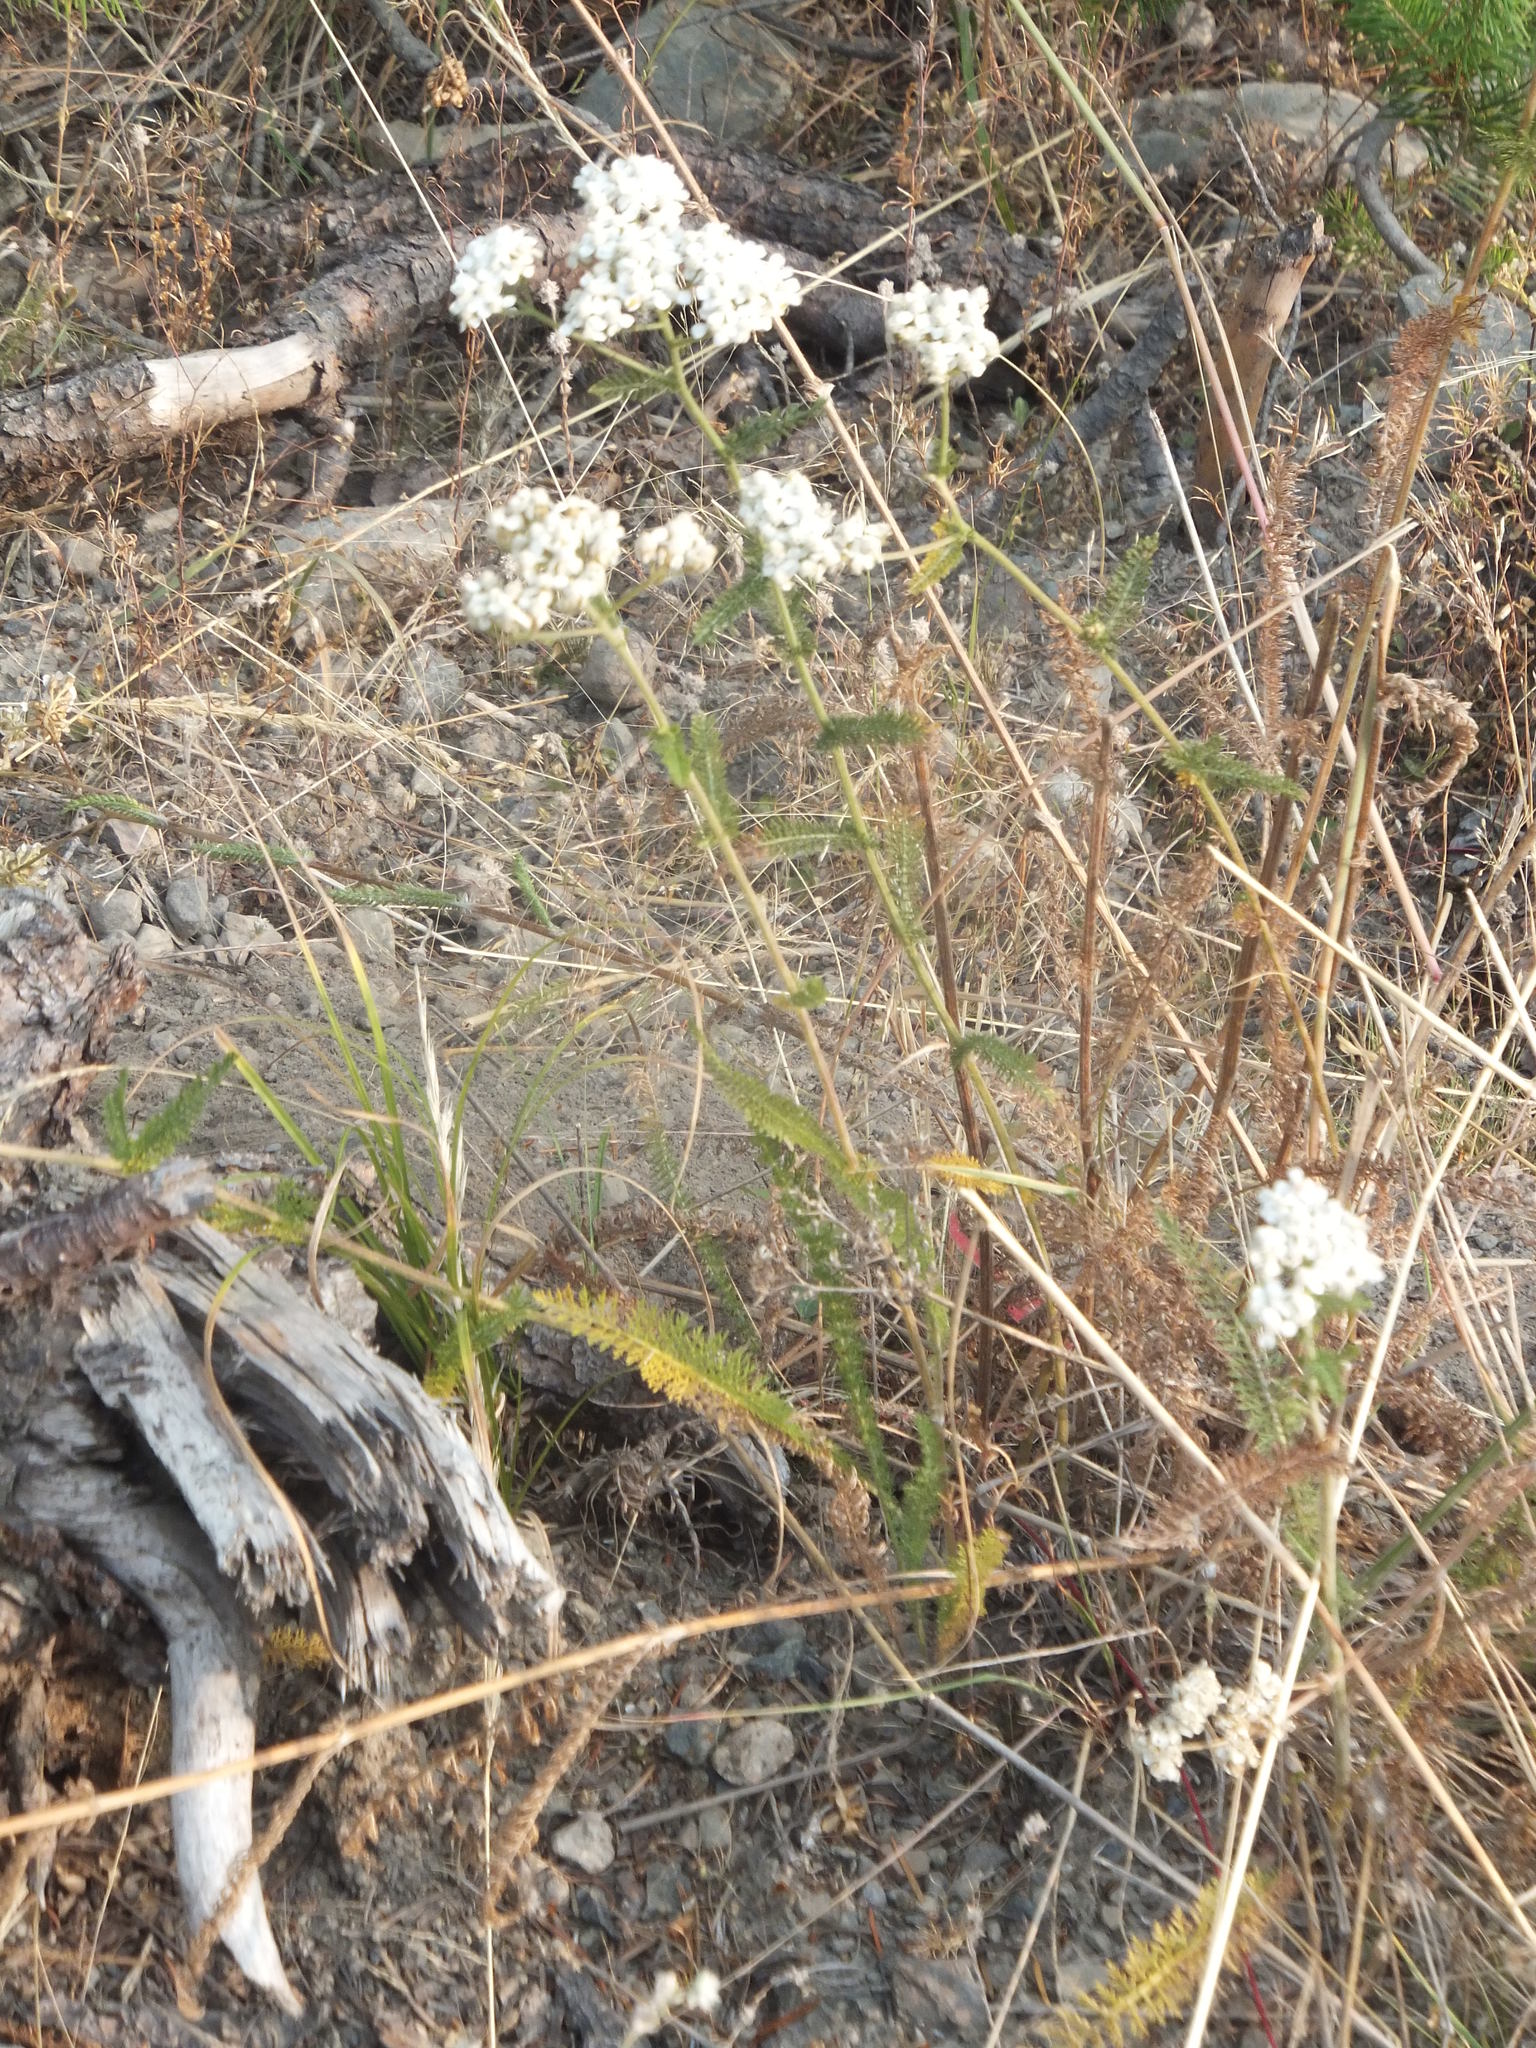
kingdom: Plantae
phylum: Tracheophyta
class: Magnoliopsida
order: Asterales
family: Asteraceae
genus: Achillea
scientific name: Achillea millefolium
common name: Yarrow
